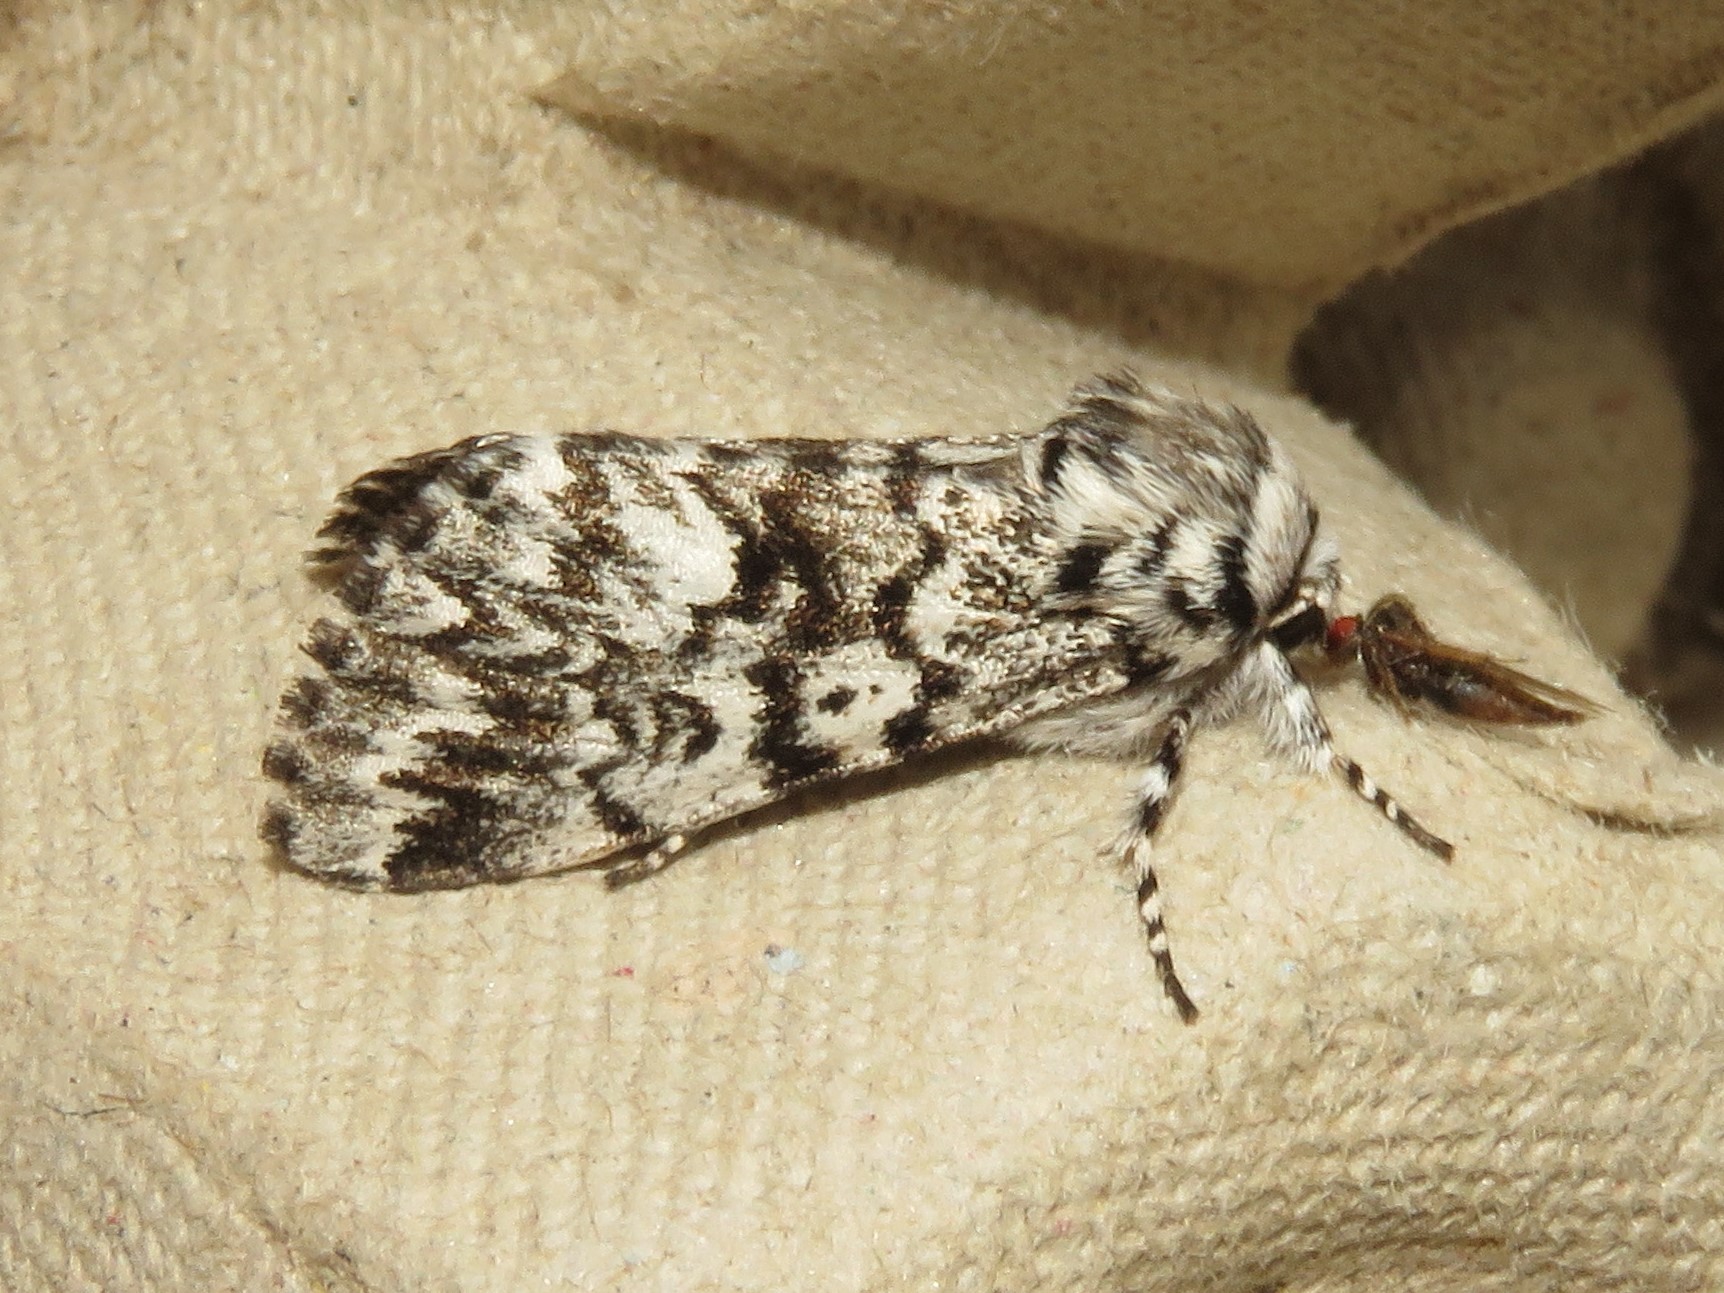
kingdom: Animalia
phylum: Arthropoda
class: Insecta
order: Lepidoptera
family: Noctuidae
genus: Panthea
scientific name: Panthea acronyctoides
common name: Black zigzag moth
